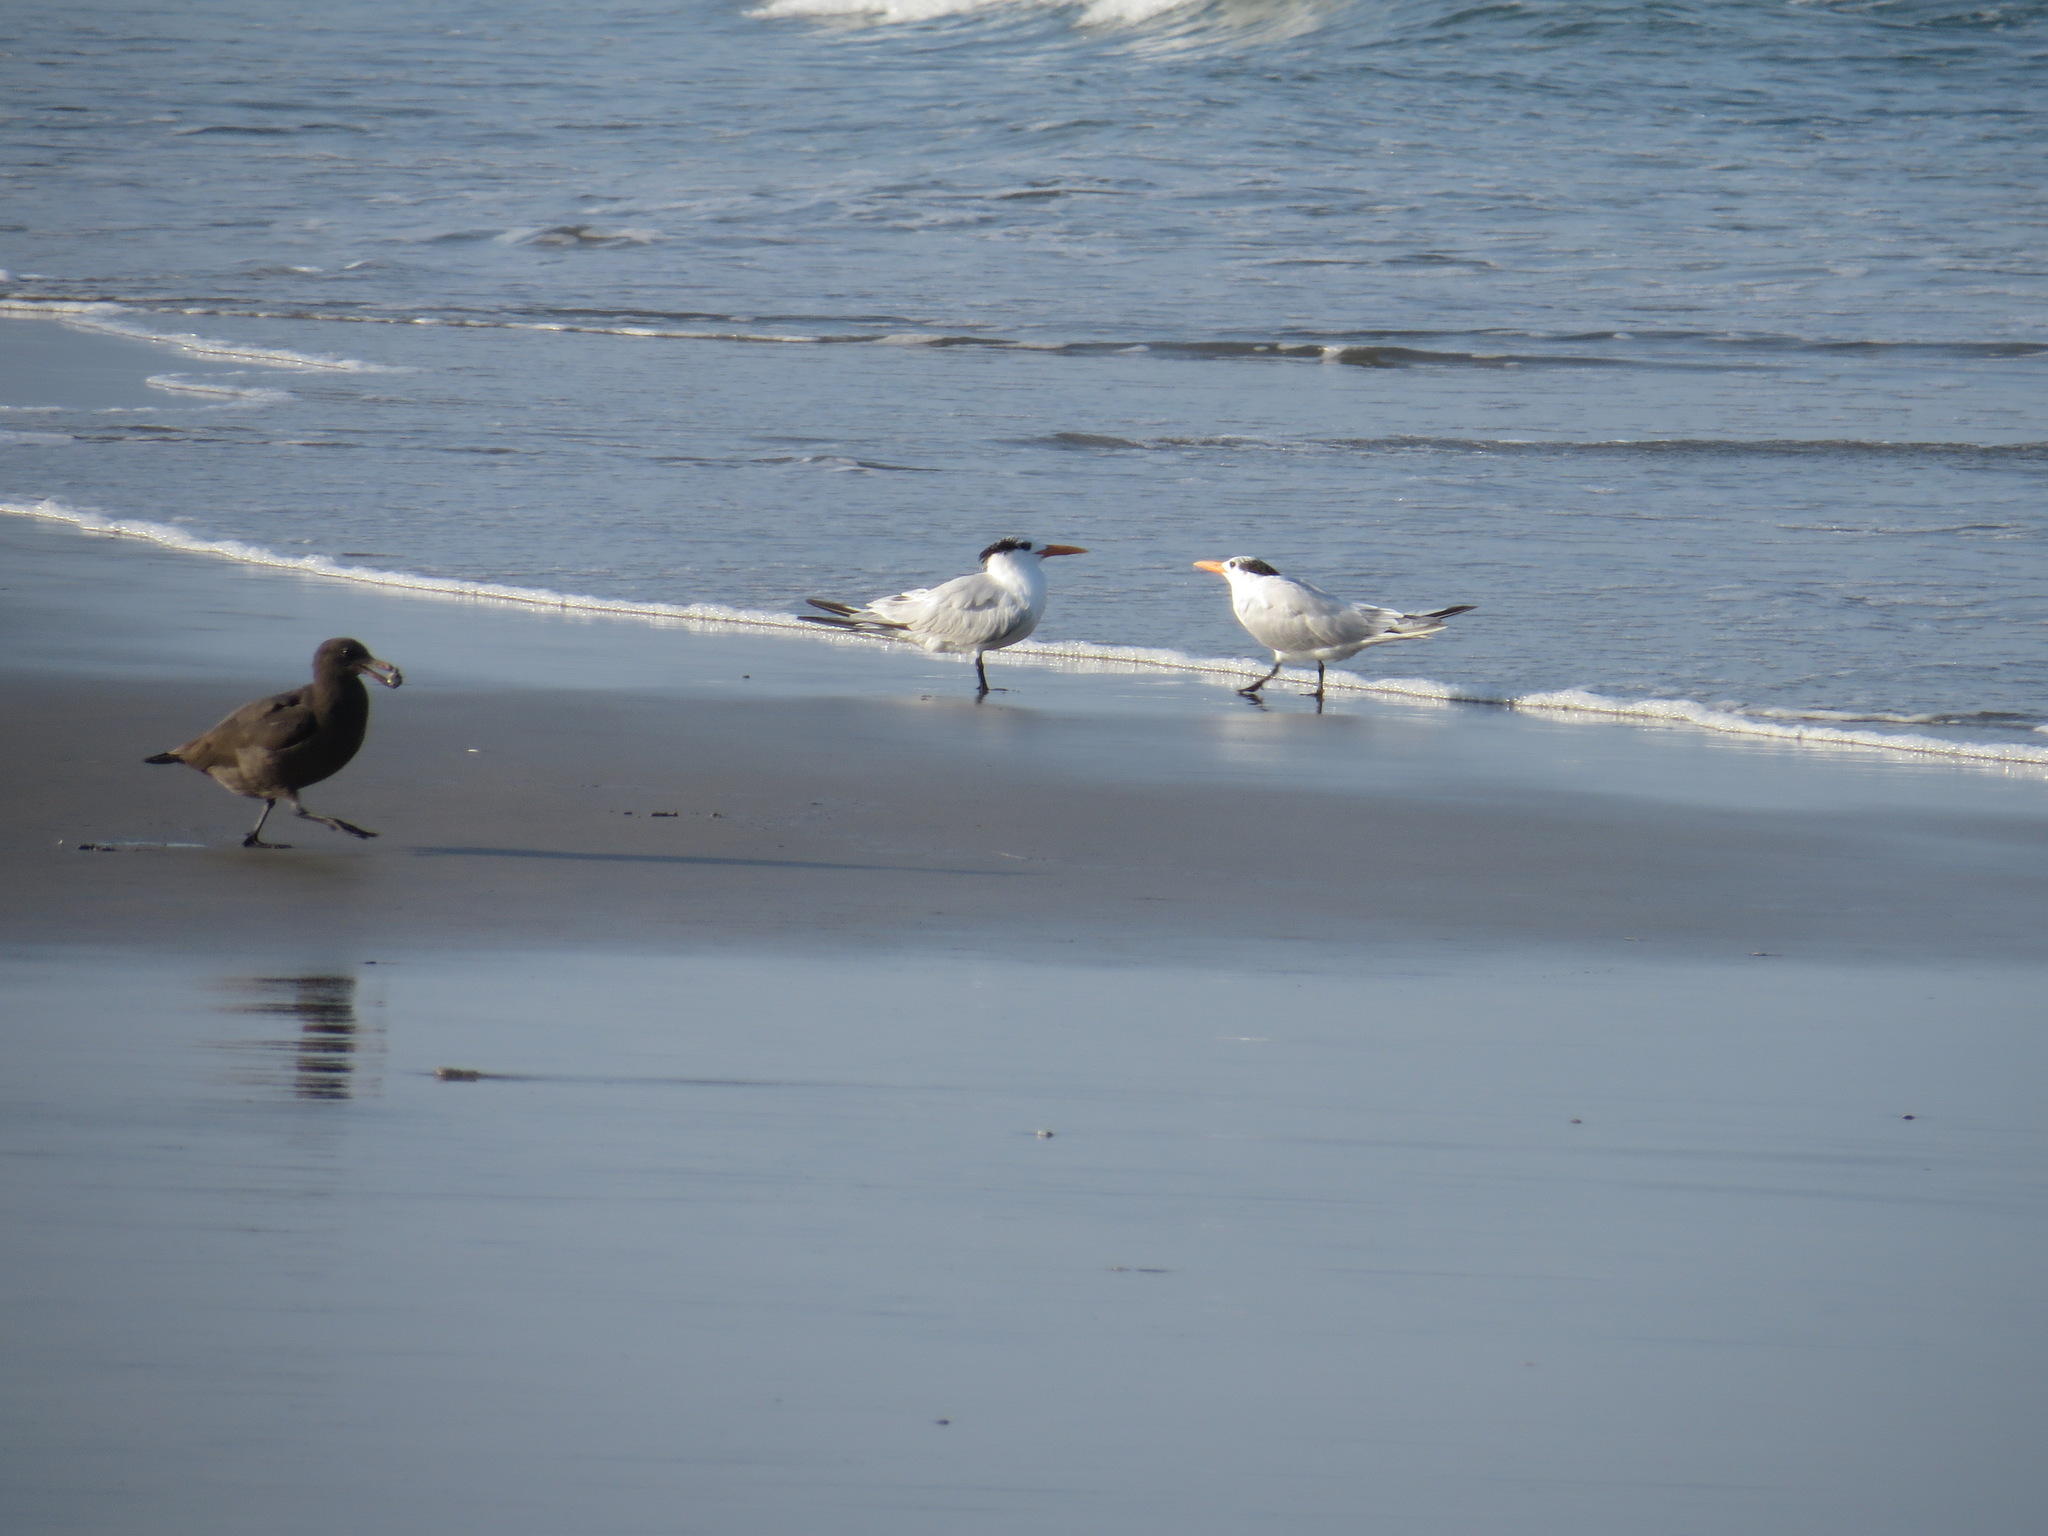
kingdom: Animalia
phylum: Chordata
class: Aves
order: Charadriiformes
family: Laridae
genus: Thalasseus
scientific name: Thalasseus elegans
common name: Elegant tern
